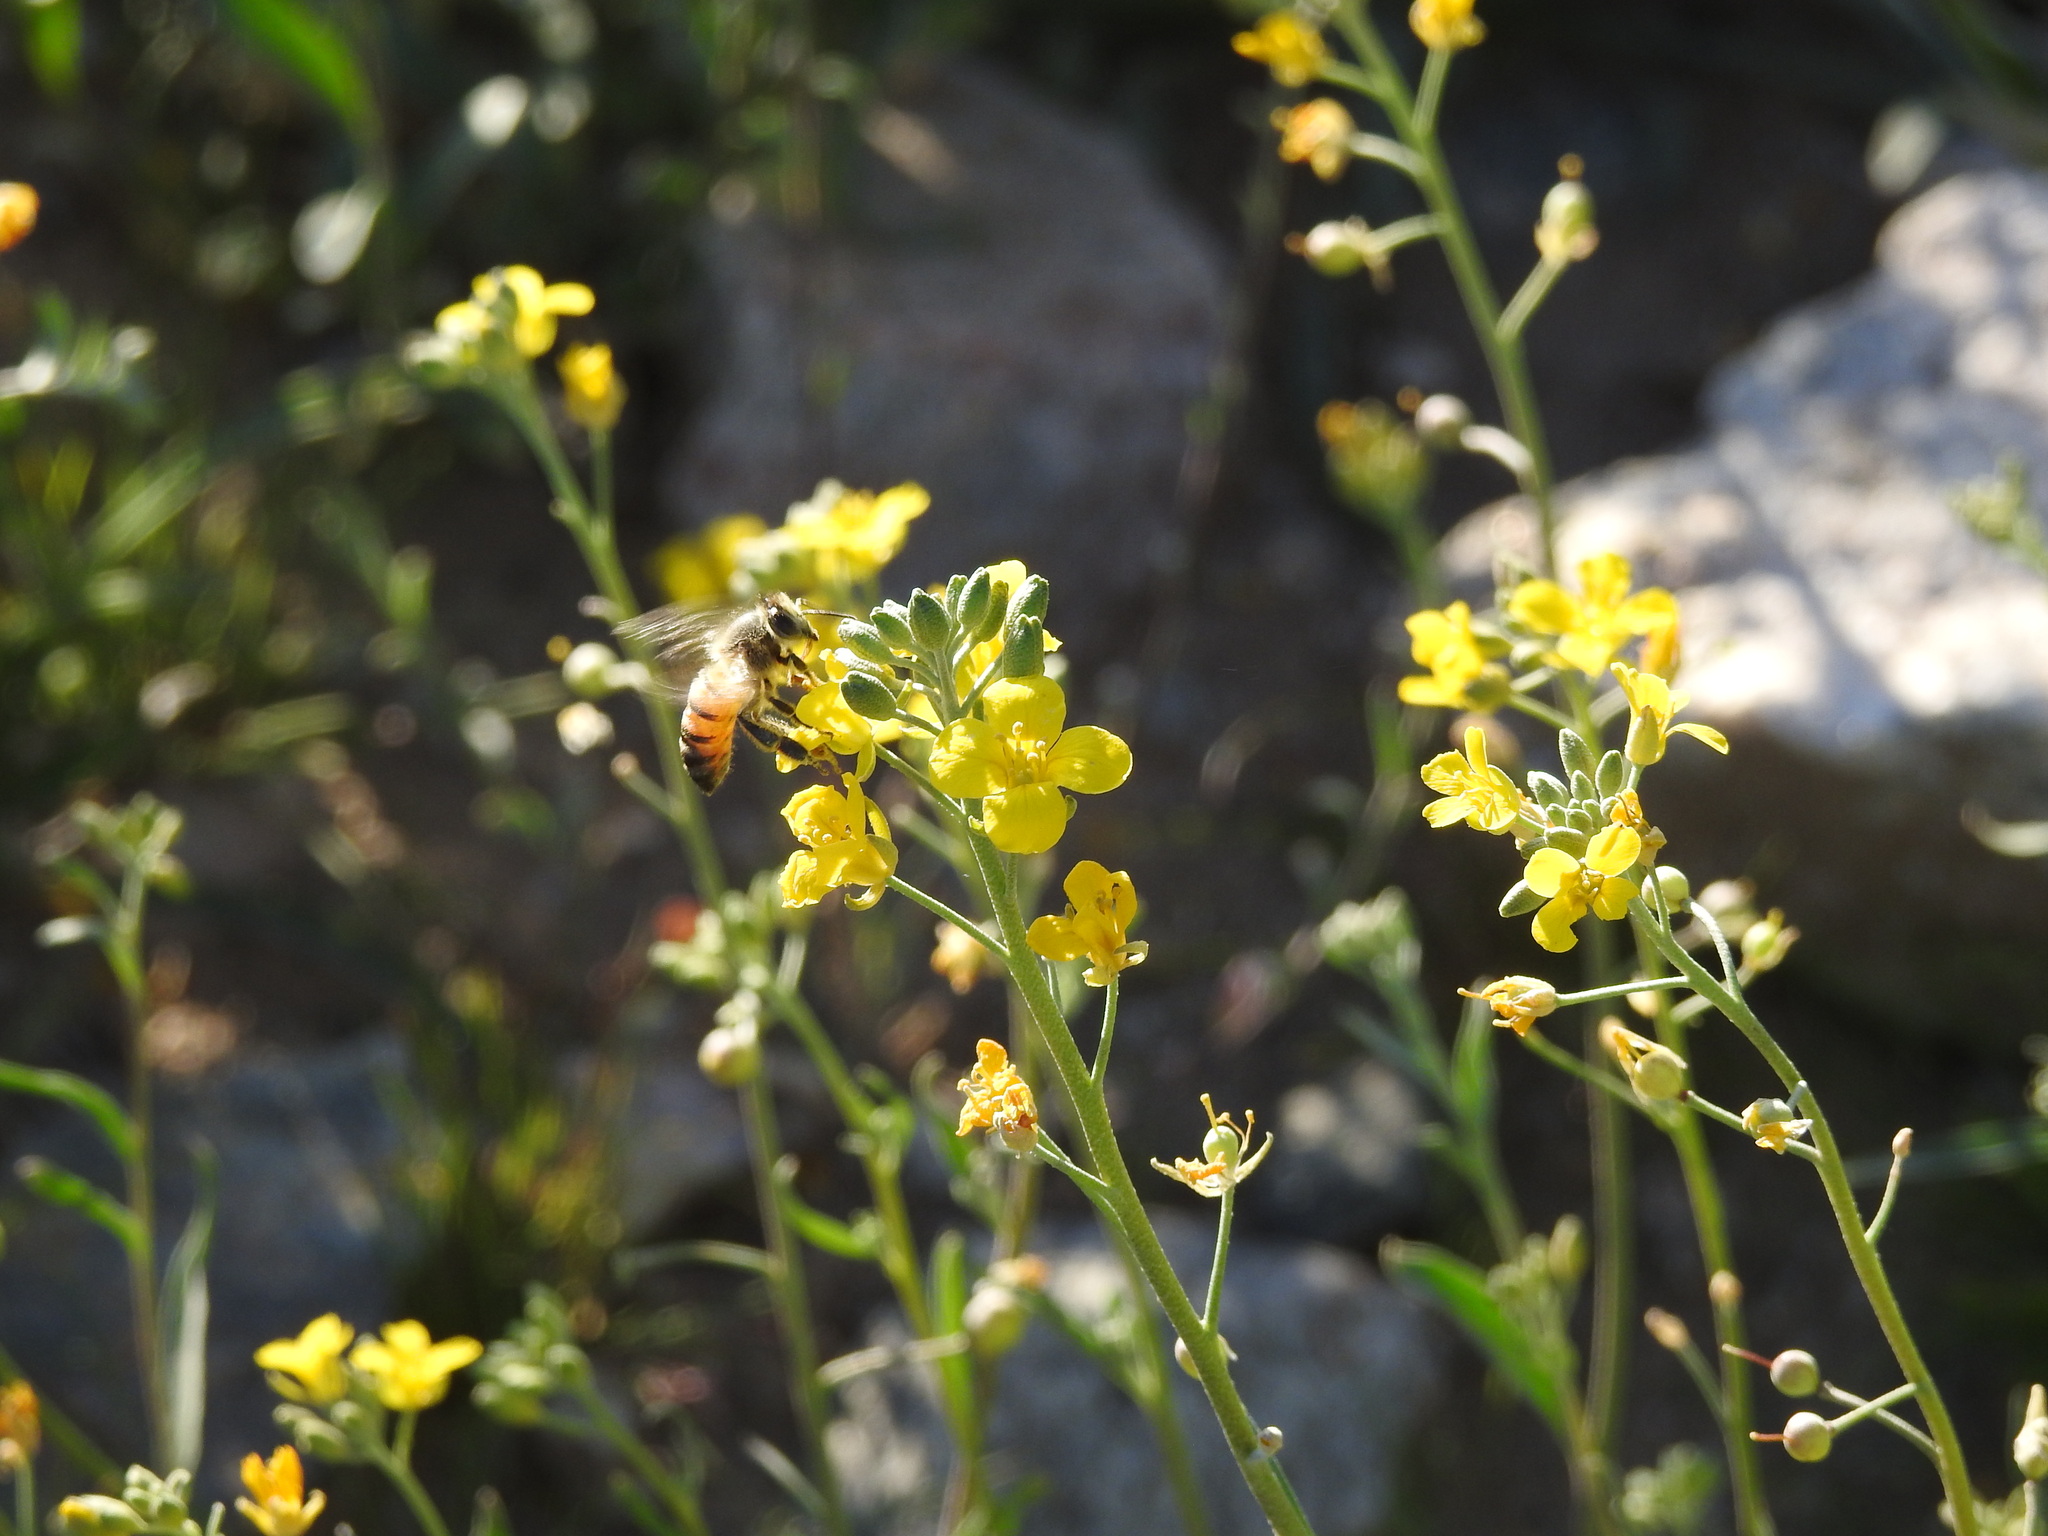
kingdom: Animalia
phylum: Arthropoda
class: Insecta
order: Hymenoptera
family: Apidae
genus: Apis
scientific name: Apis mellifera
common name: Honey bee
